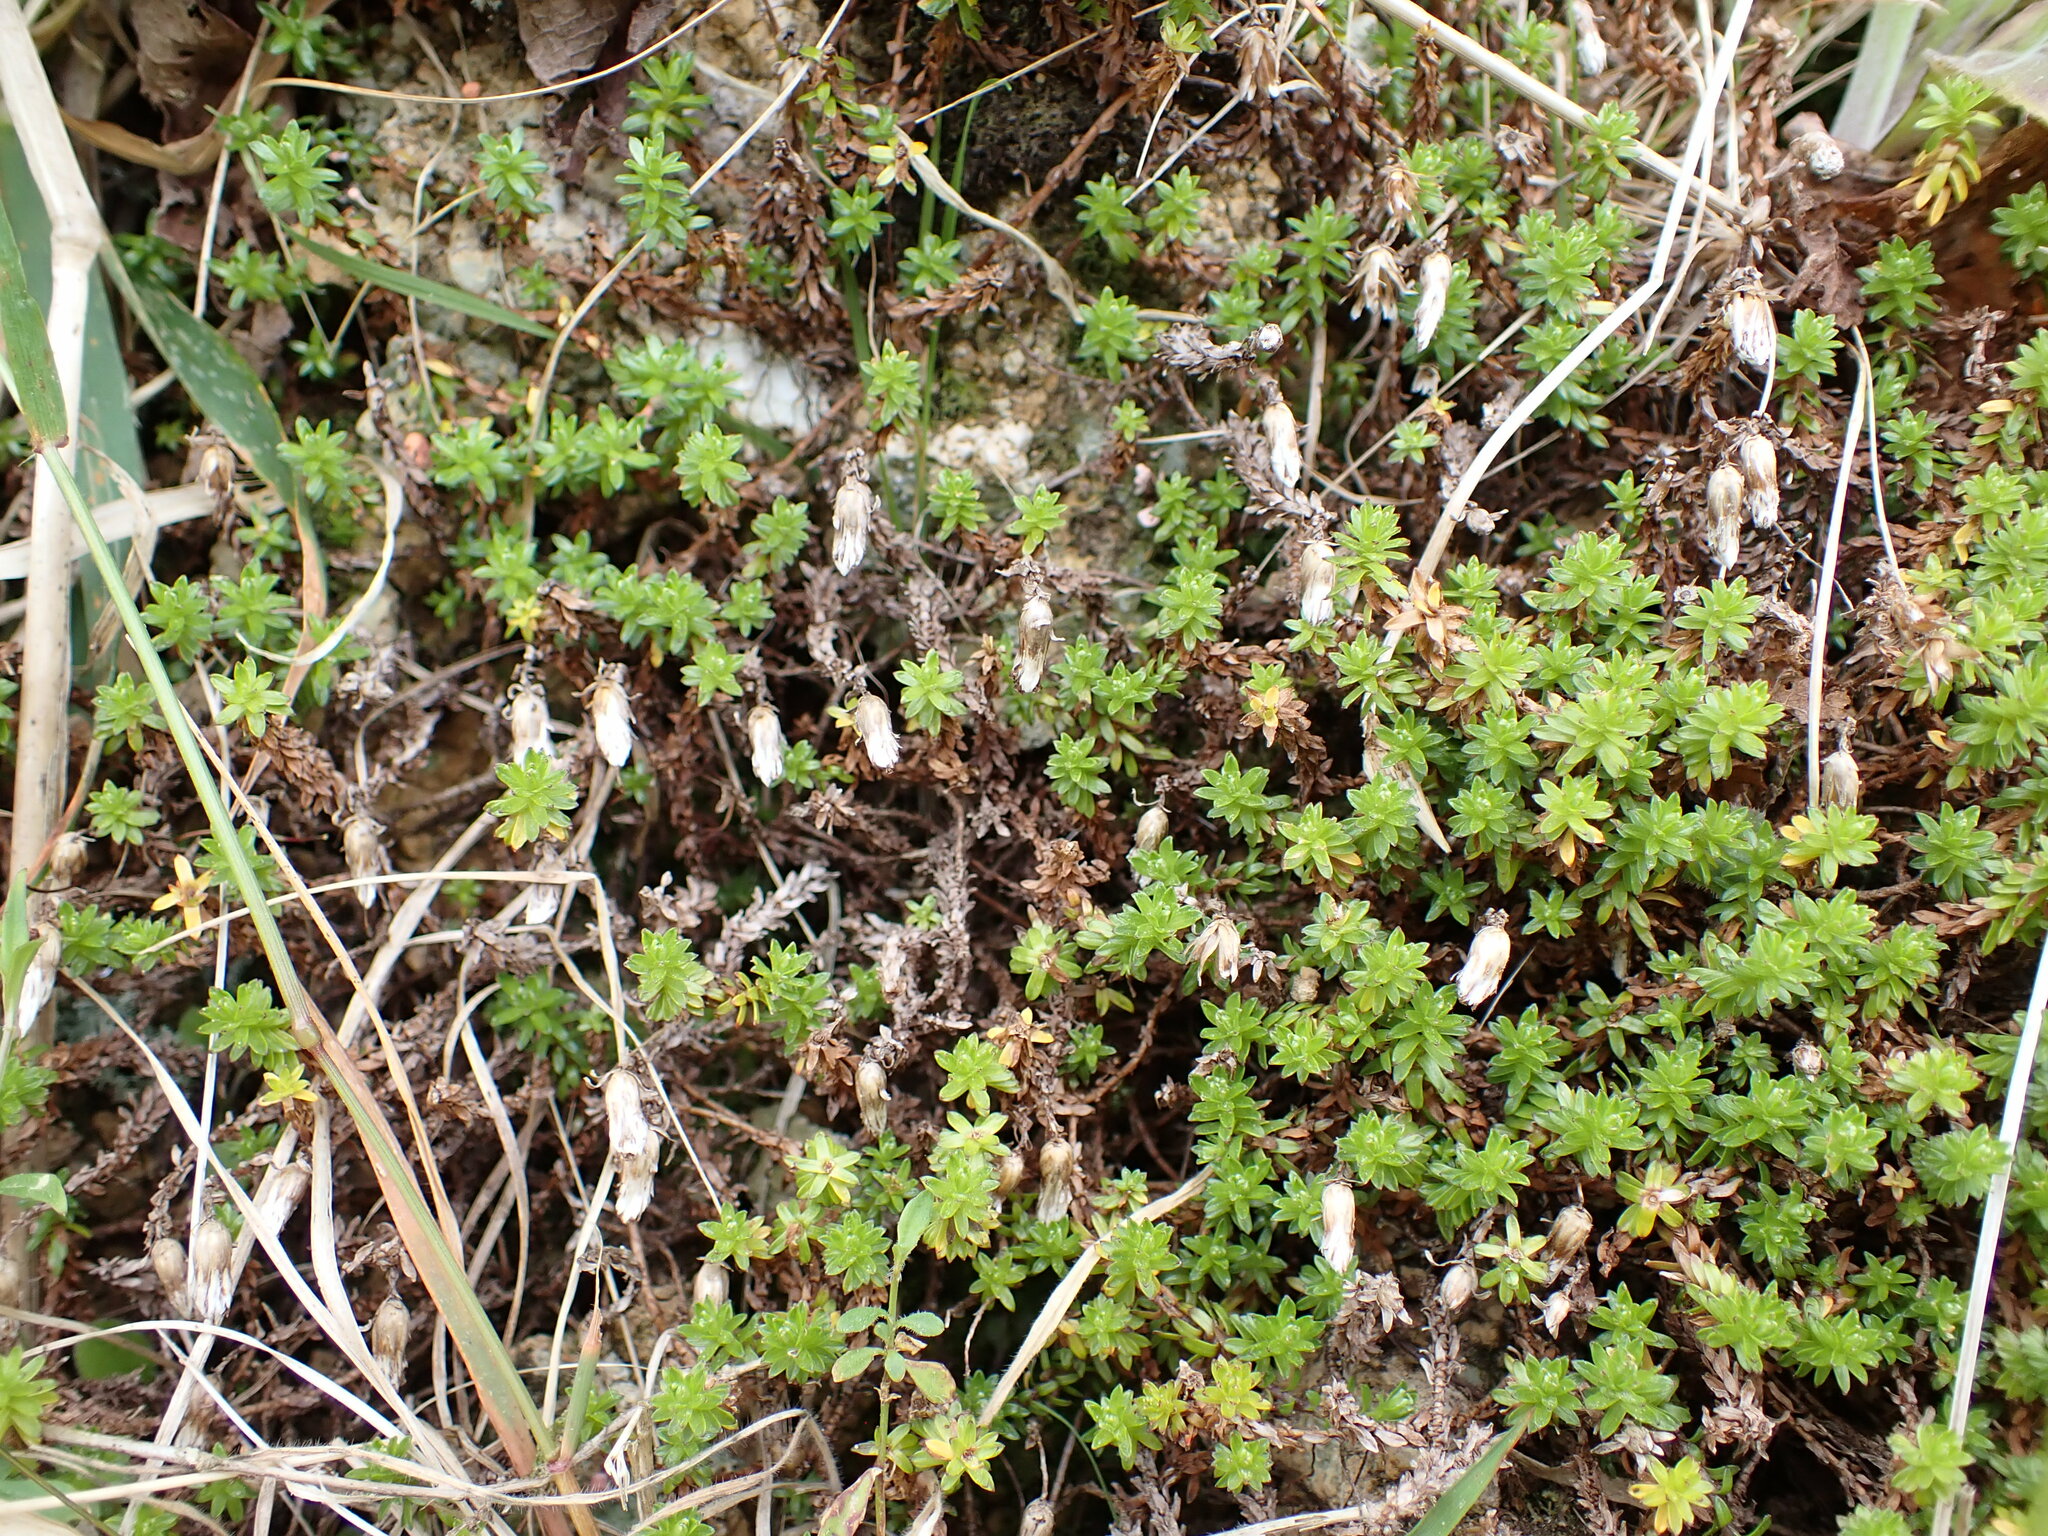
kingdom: Plantae
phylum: Tracheophyta
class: Magnoliopsida
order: Asterales
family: Asteraceae
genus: Raoulia
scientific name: Raoulia glabra
